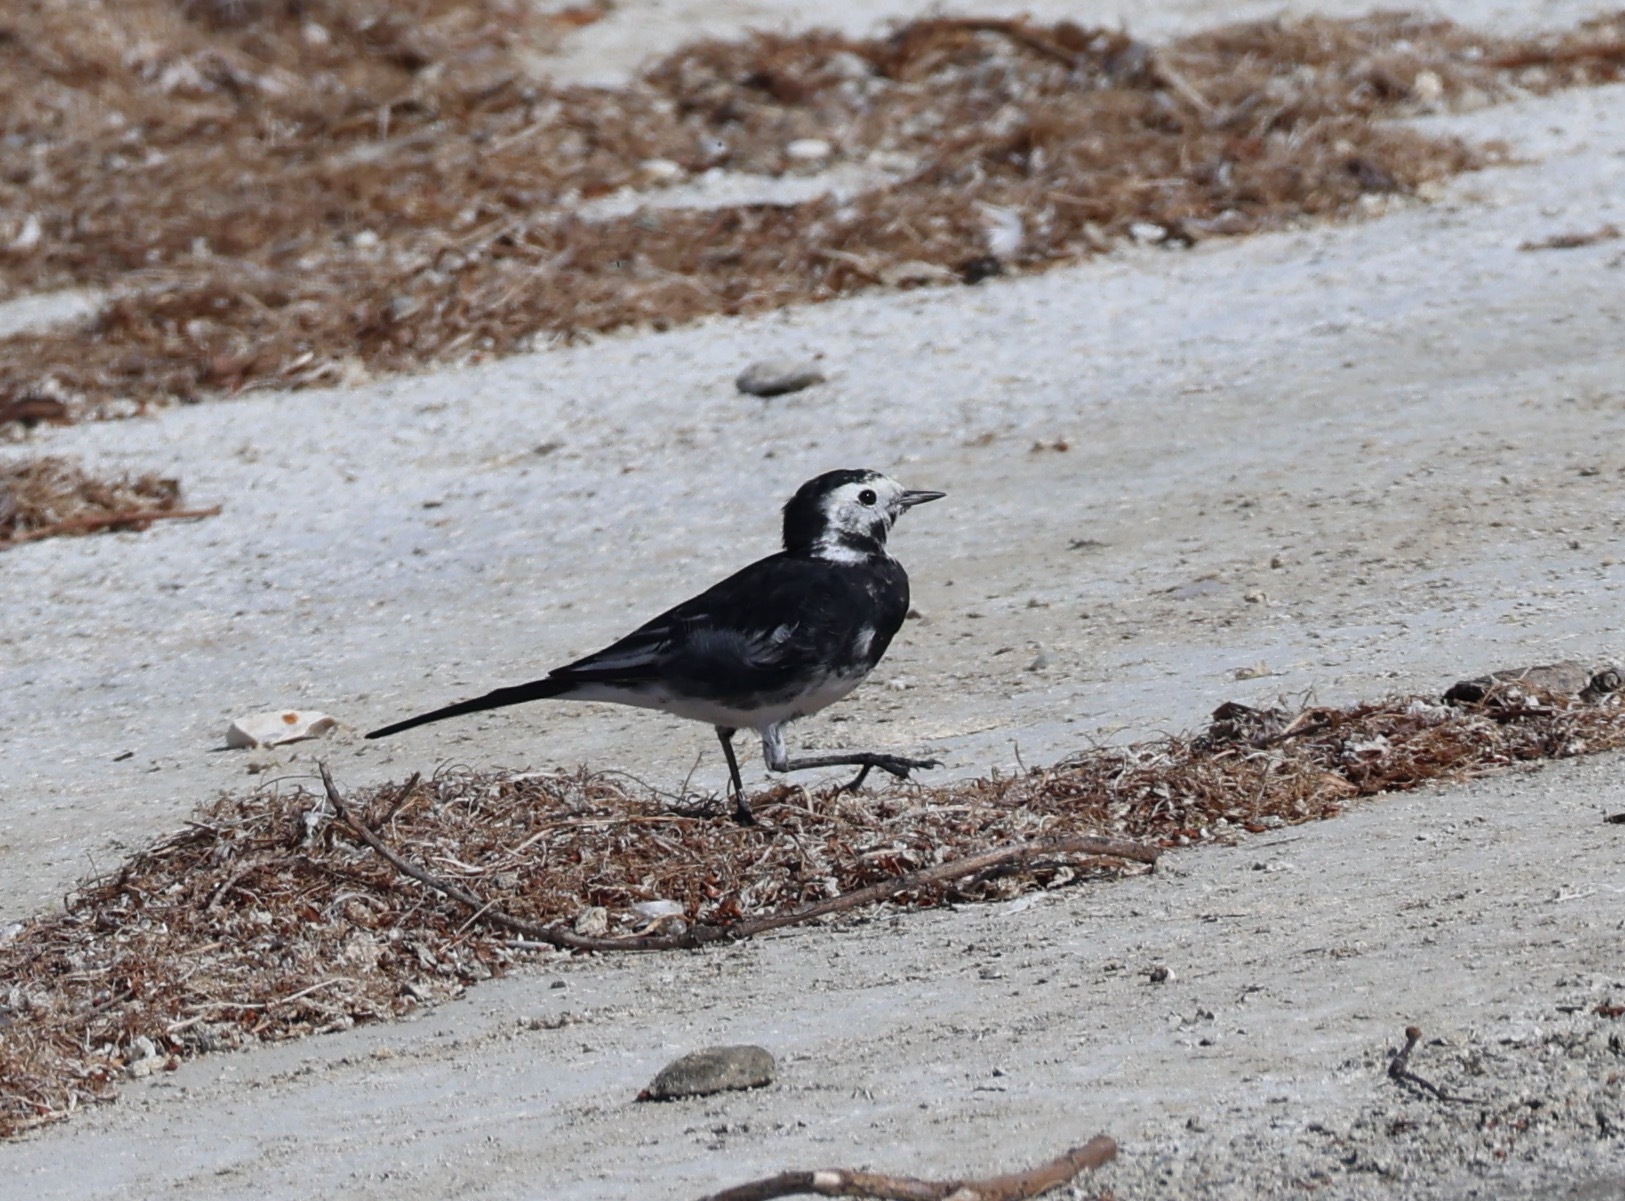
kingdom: Animalia
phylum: Chordata
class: Aves
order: Passeriformes
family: Motacillidae
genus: Motacilla
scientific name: Motacilla alba
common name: White wagtail
